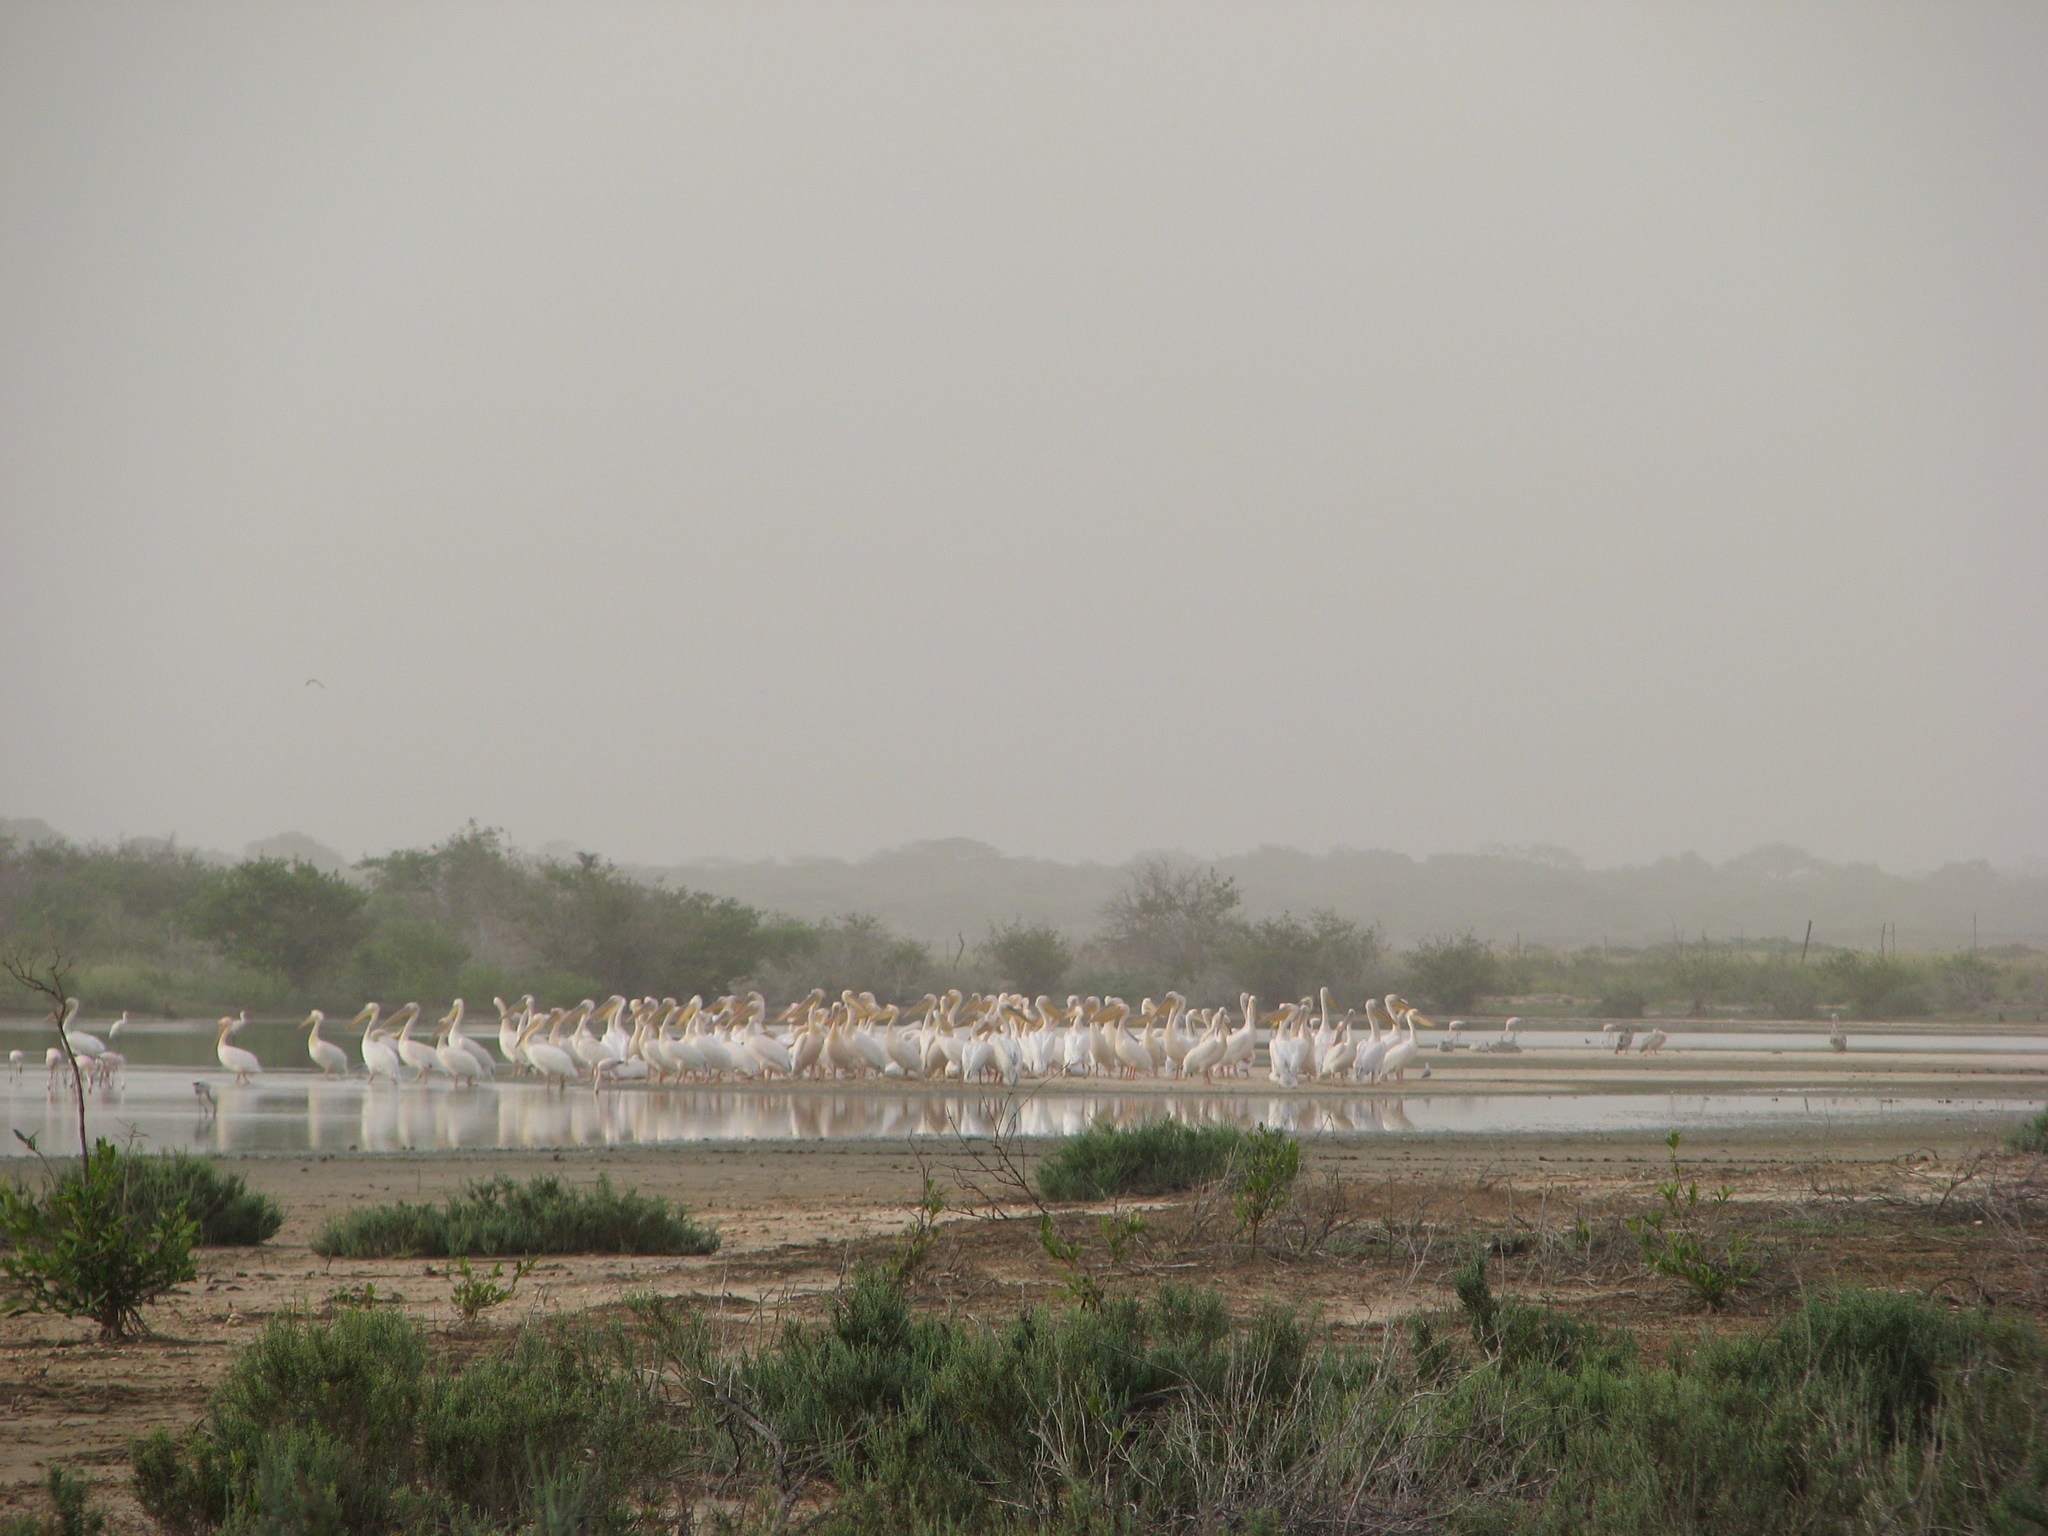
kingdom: Animalia
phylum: Chordata
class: Aves
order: Pelecaniformes
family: Pelecanidae
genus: Pelecanus
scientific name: Pelecanus onocrotalus
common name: Great white pelican
